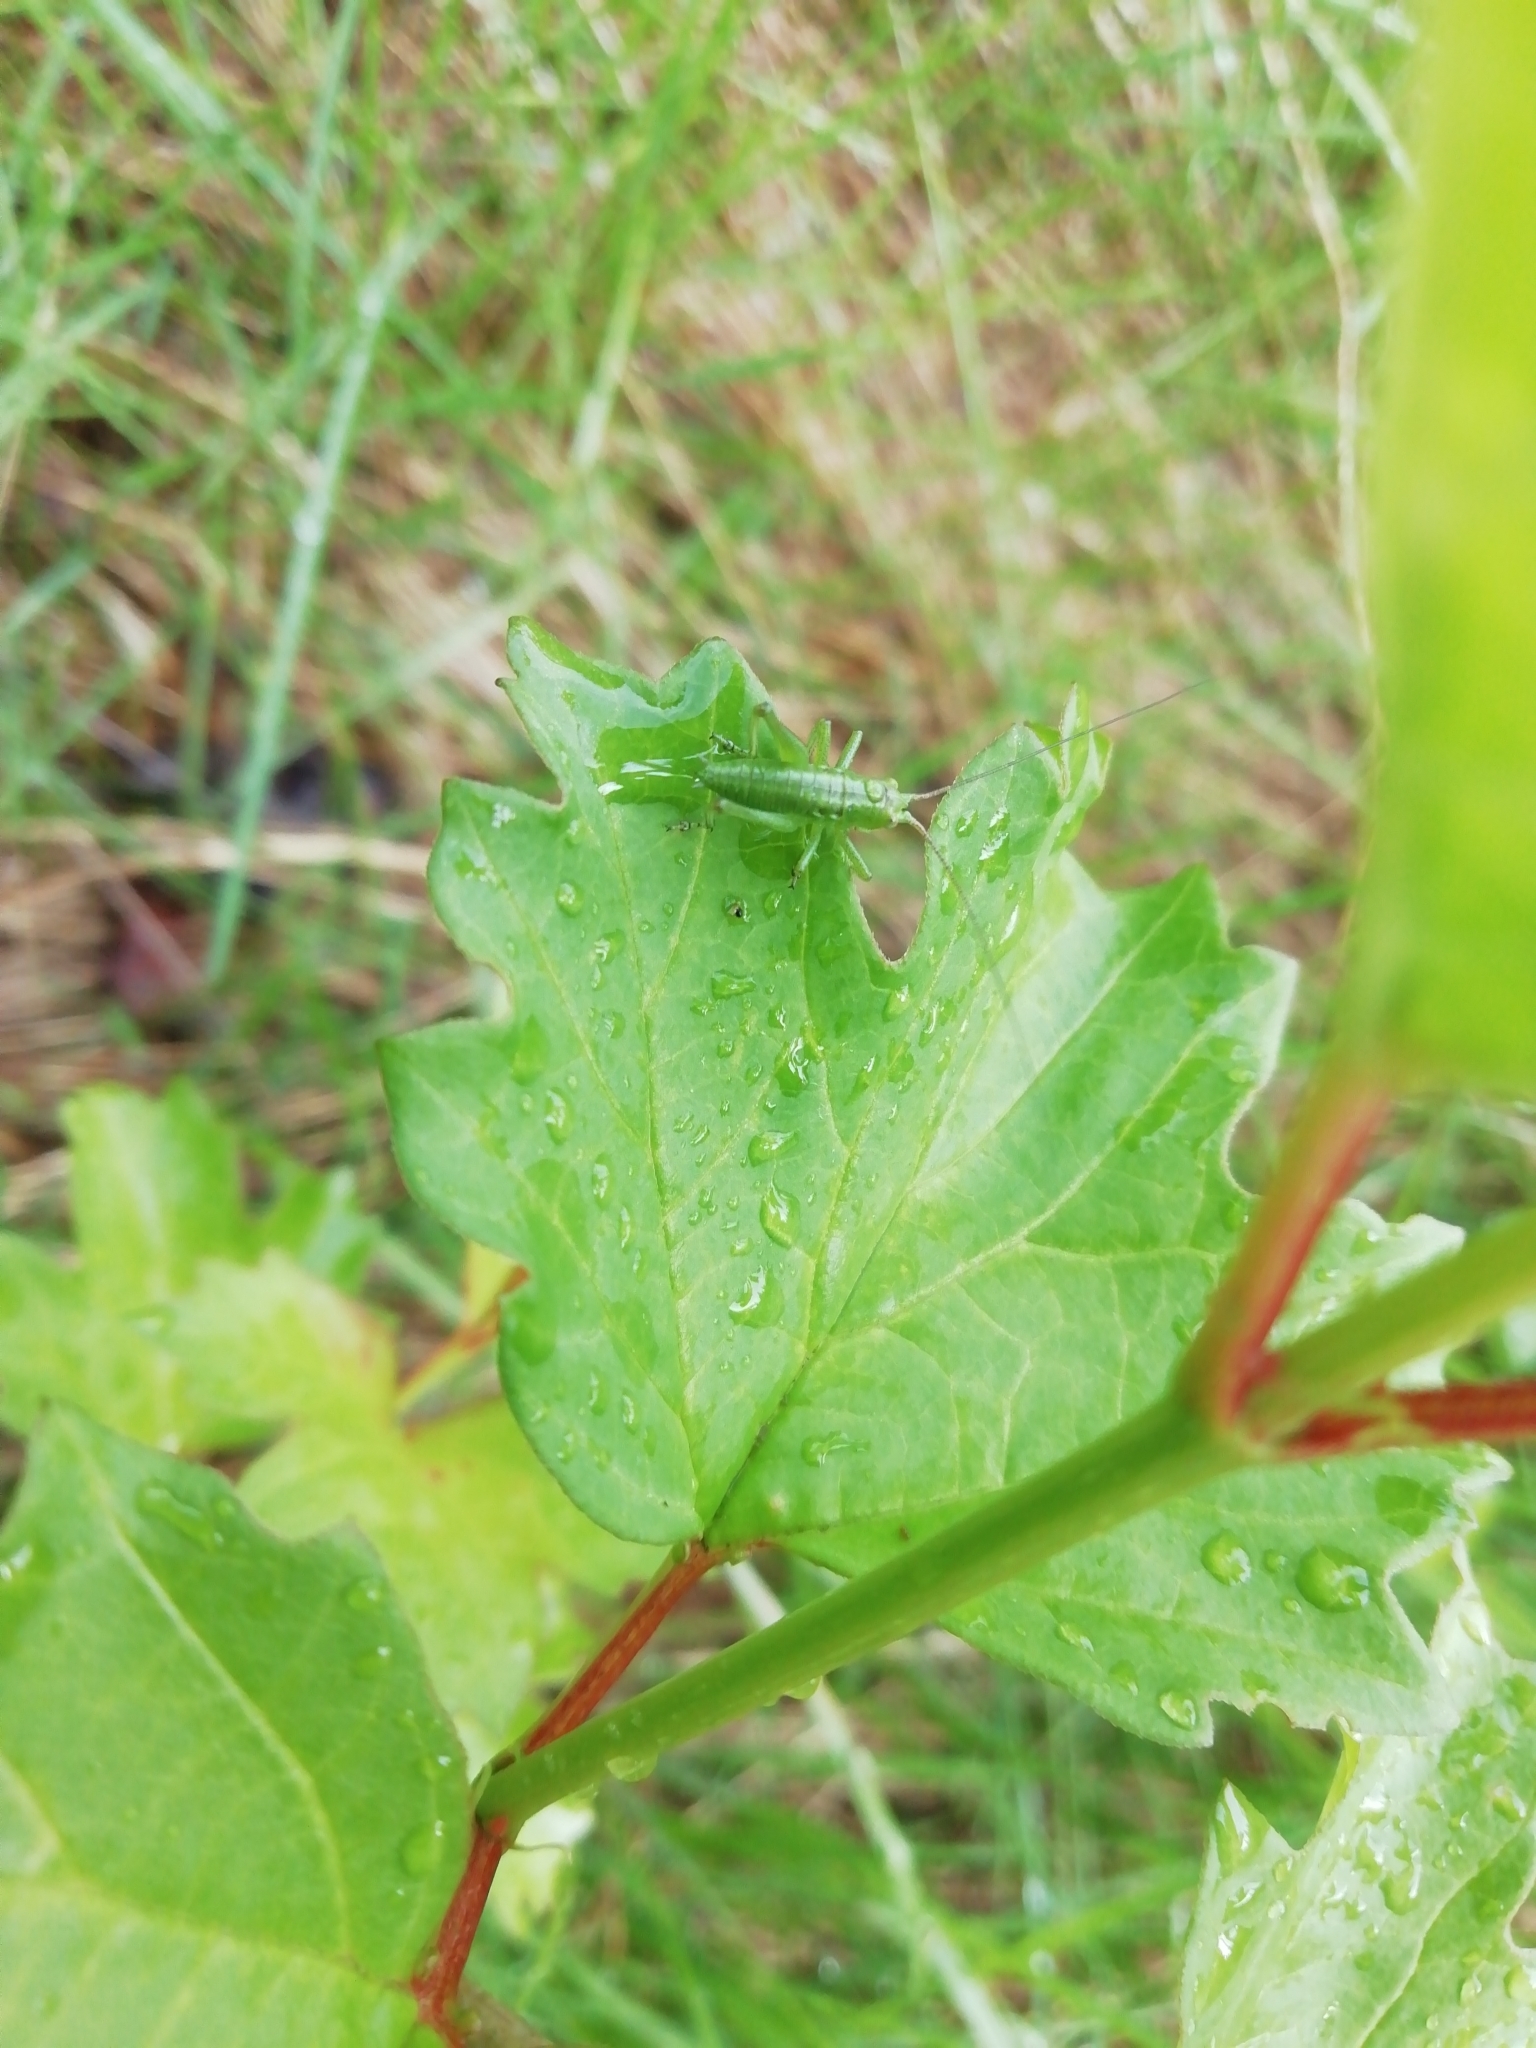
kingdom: Animalia
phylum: Arthropoda
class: Insecta
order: Orthoptera
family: Tettigoniidae
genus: Tettigonia
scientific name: Tettigonia
